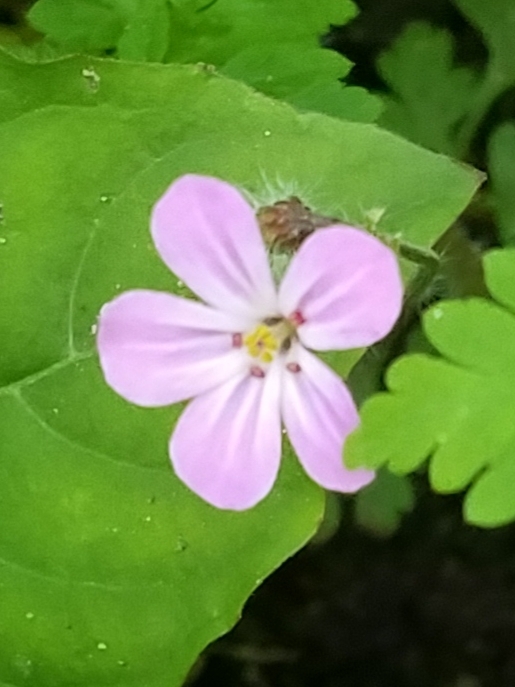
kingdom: Plantae
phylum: Tracheophyta
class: Magnoliopsida
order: Geraniales
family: Geraniaceae
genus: Geranium
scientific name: Geranium robertianum
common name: Herb-robert
